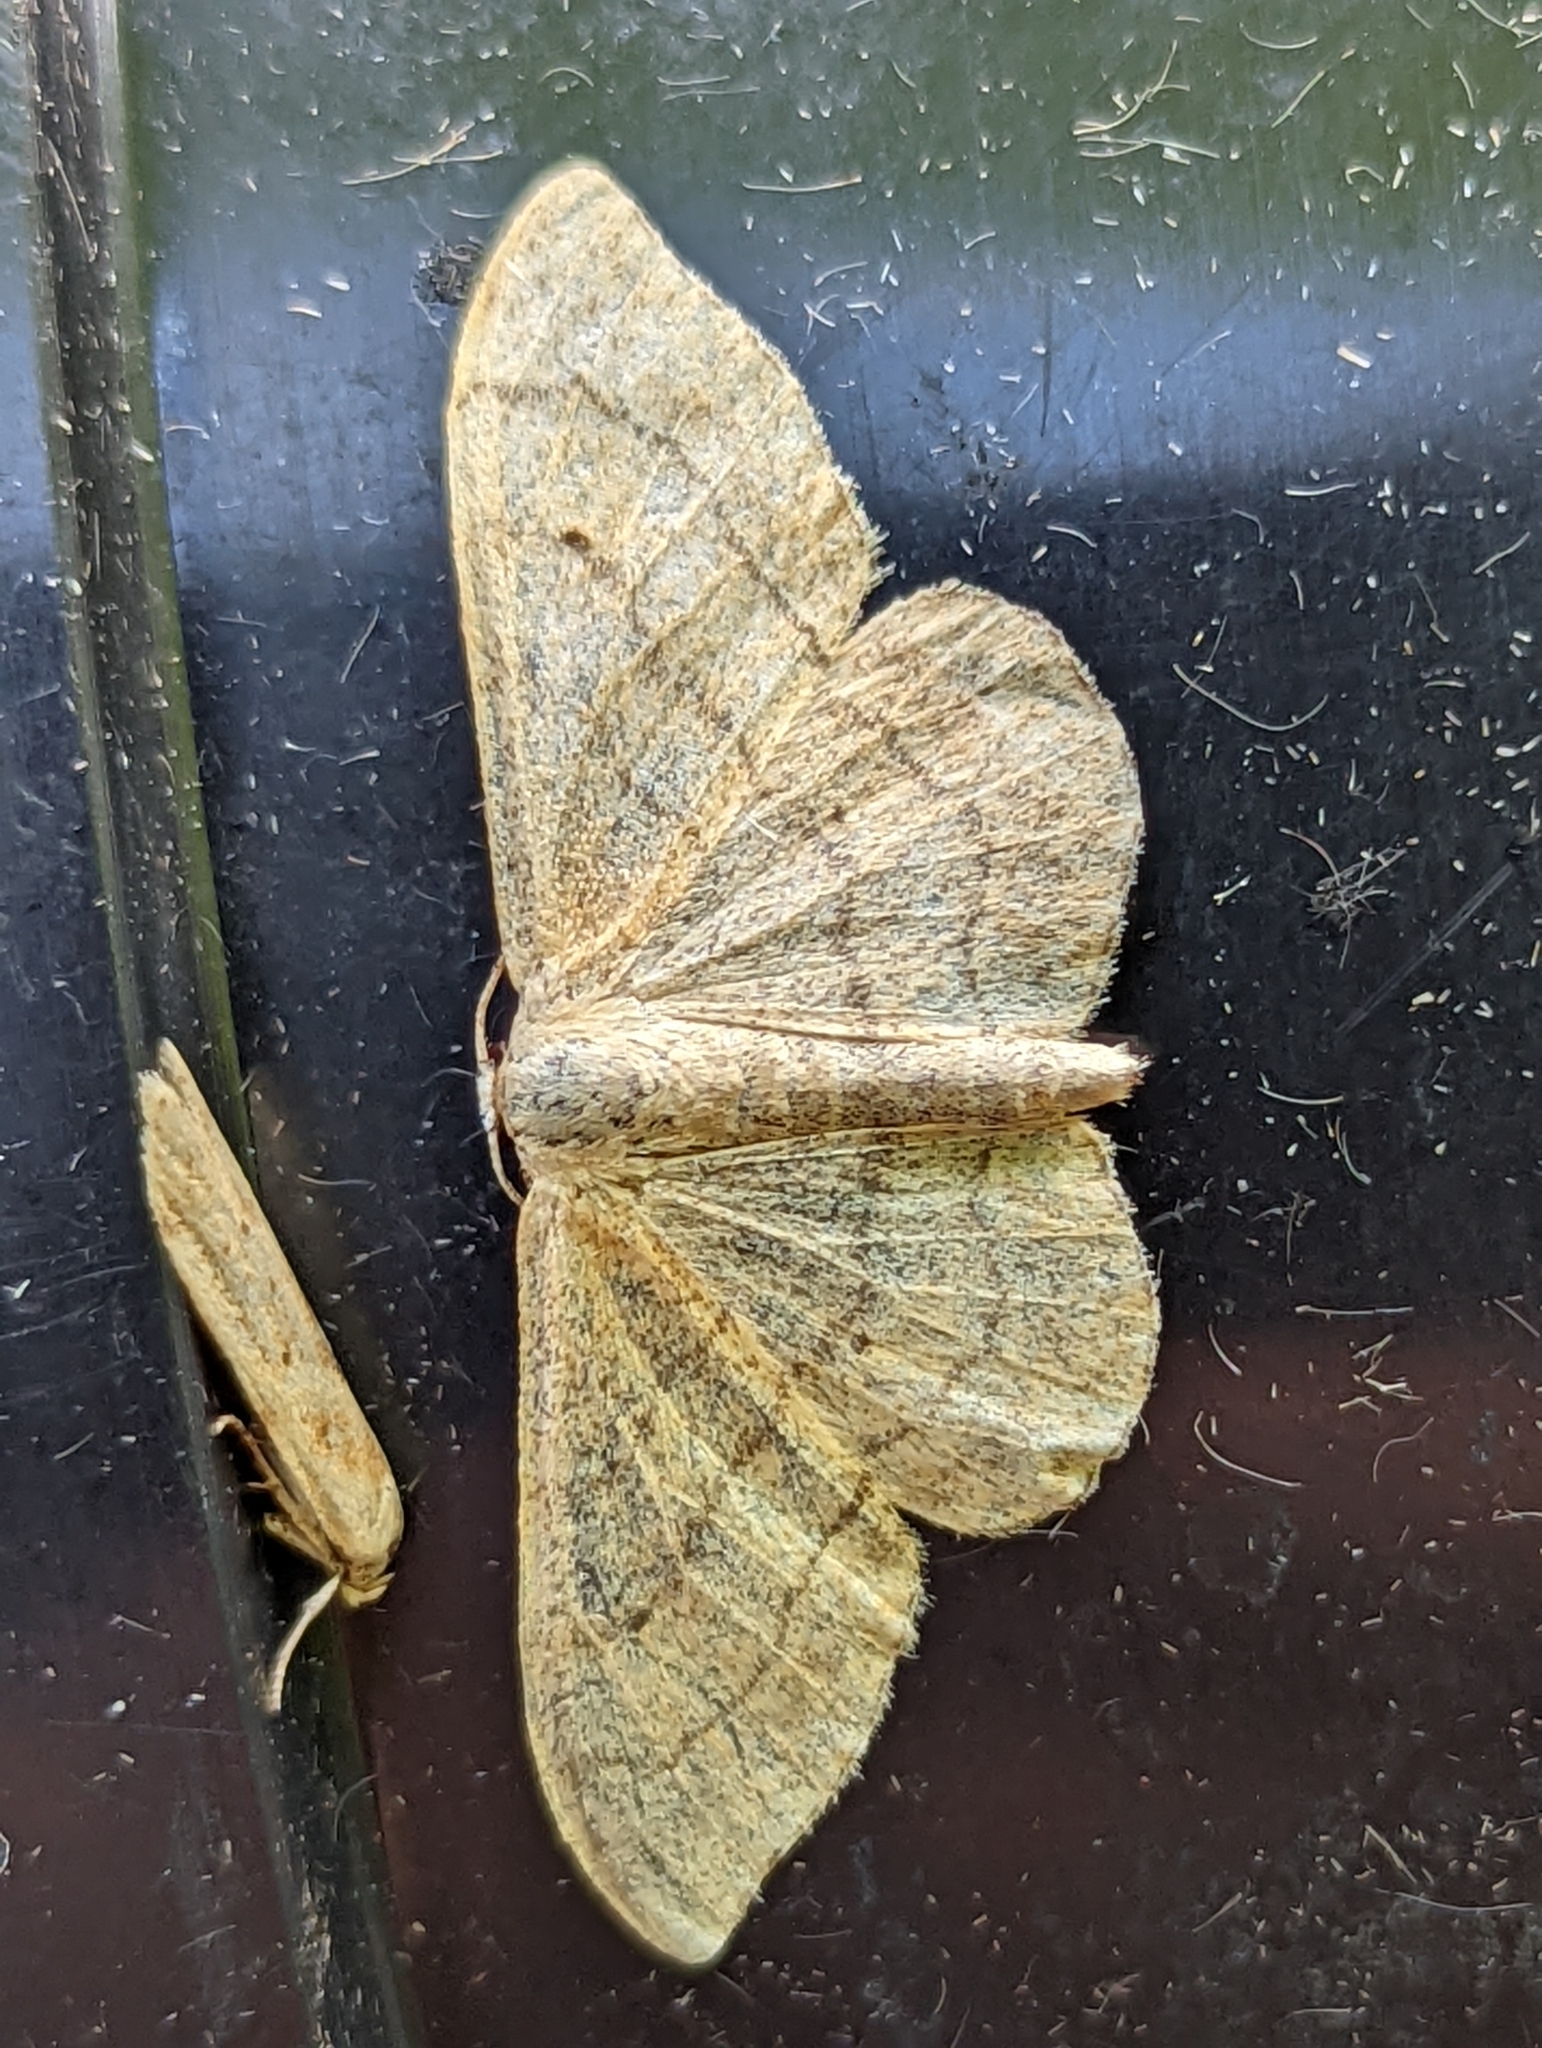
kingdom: Animalia
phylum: Arthropoda
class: Insecta
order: Lepidoptera
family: Geometridae
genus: Idaea
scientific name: Idaea aversata
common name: Riband wave
